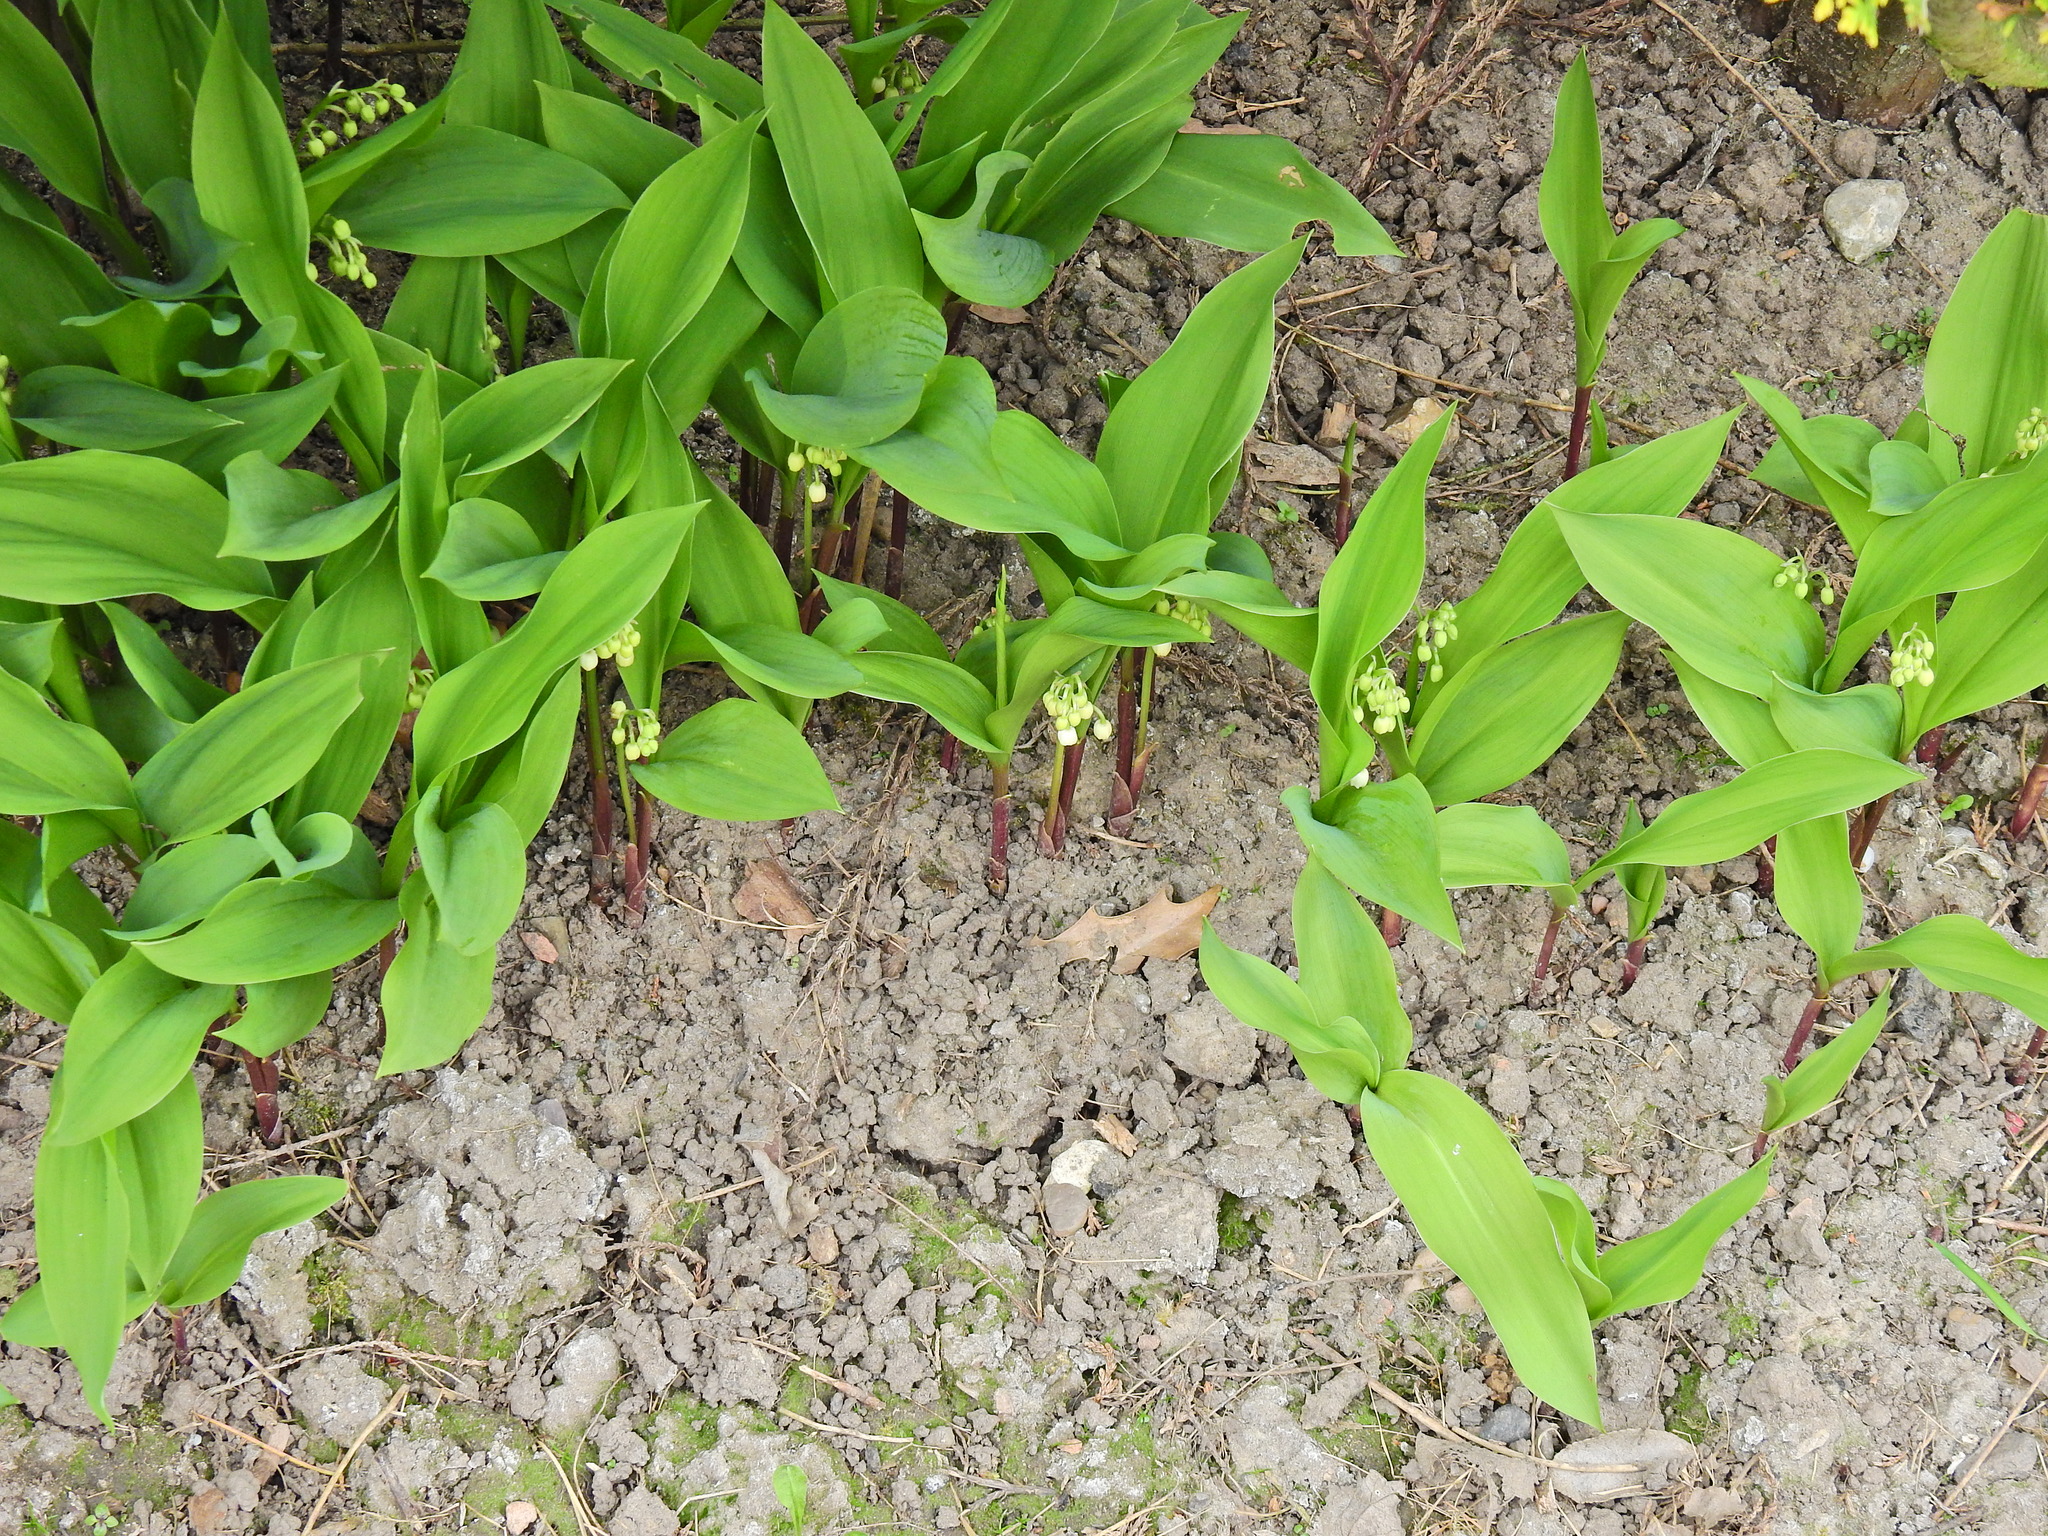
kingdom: Plantae
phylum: Tracheophyta
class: Liliopsida
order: Asparagales
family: Asparagaceae
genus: Convallaria
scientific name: Convallaria majalis
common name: Lily-of-the-valley
